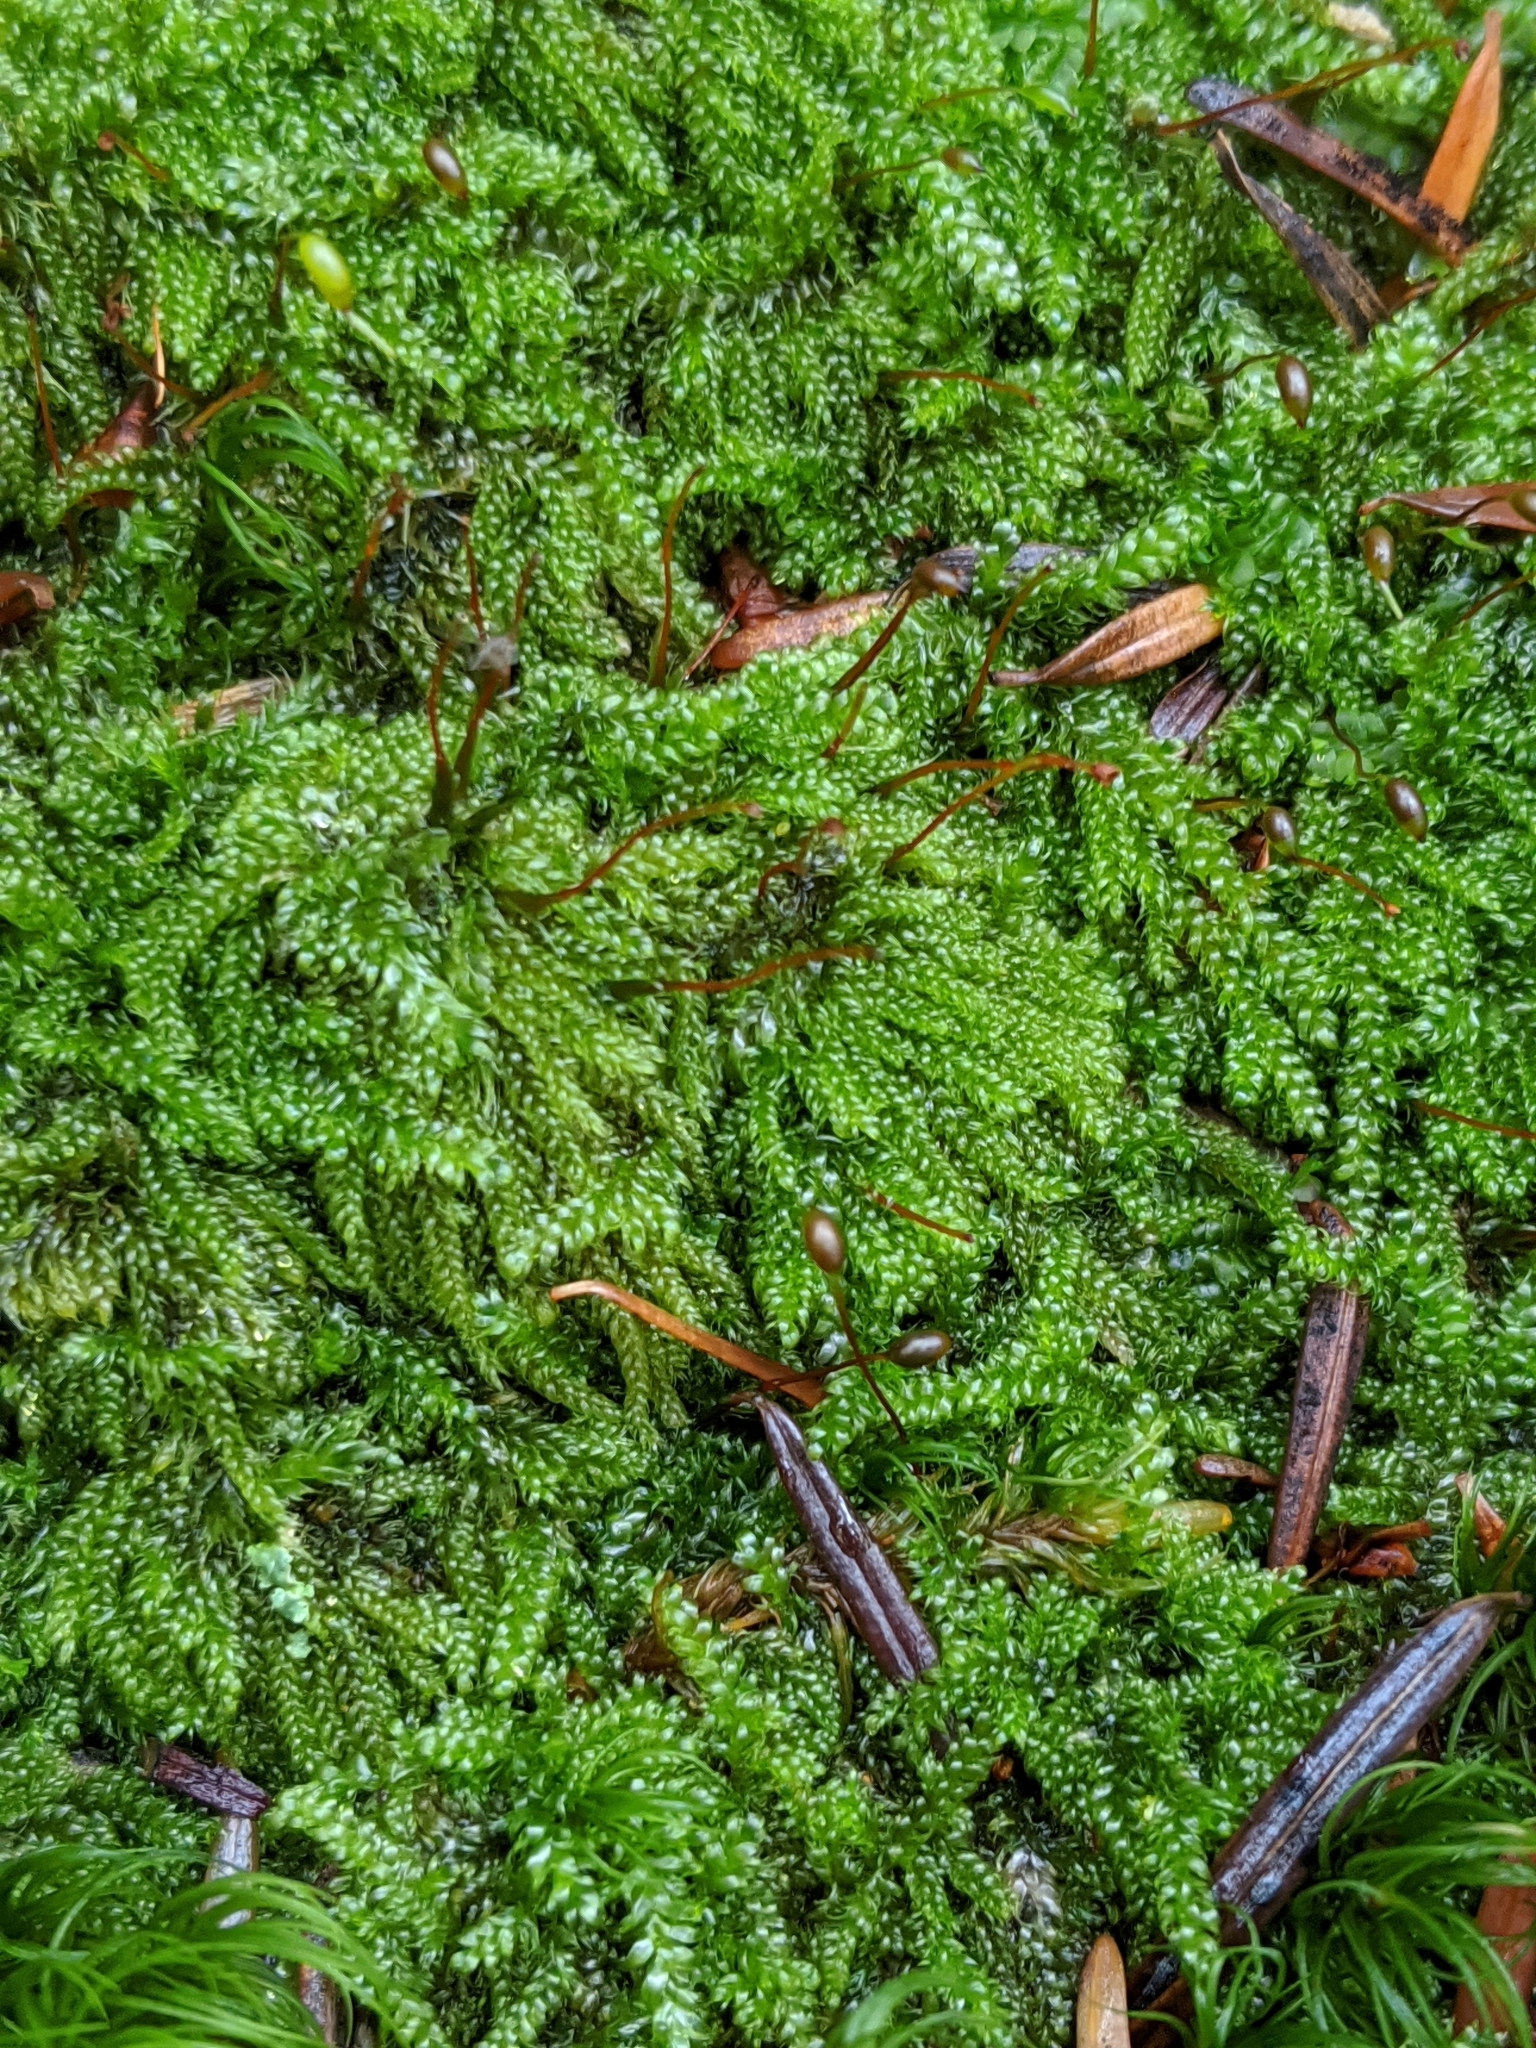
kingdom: Plantae
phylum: Bryophyta
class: Bryopsida
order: Hypnales
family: Pylaisiadelphaceae
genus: Trochophyllohypnum
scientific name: Trochophyllohypnum circinale
